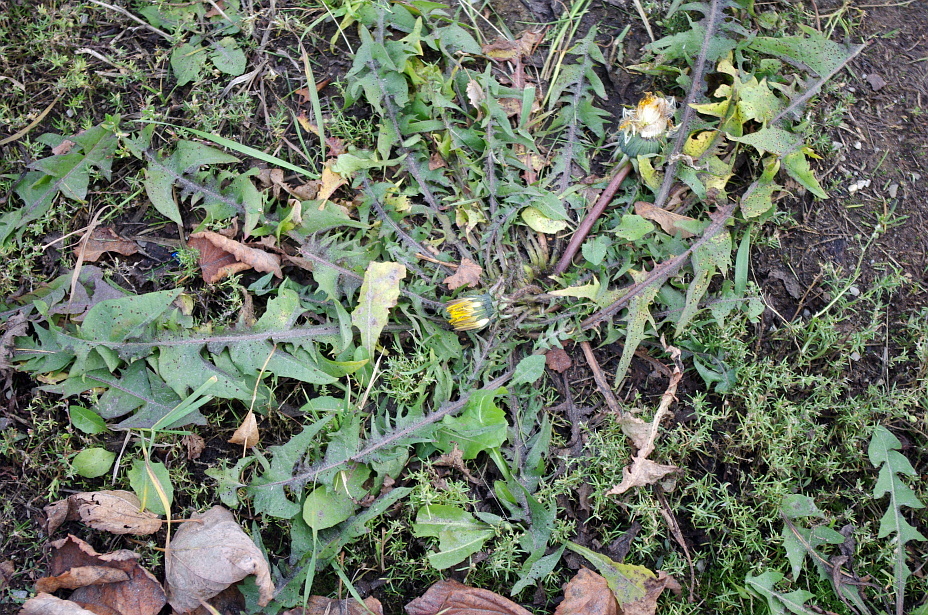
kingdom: Plantae
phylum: Tracheophyta
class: Magnoliopsida
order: Asterales
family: Asteraceae
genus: Taraxacum
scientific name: Taraxacum officinale
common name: Common dandelion
